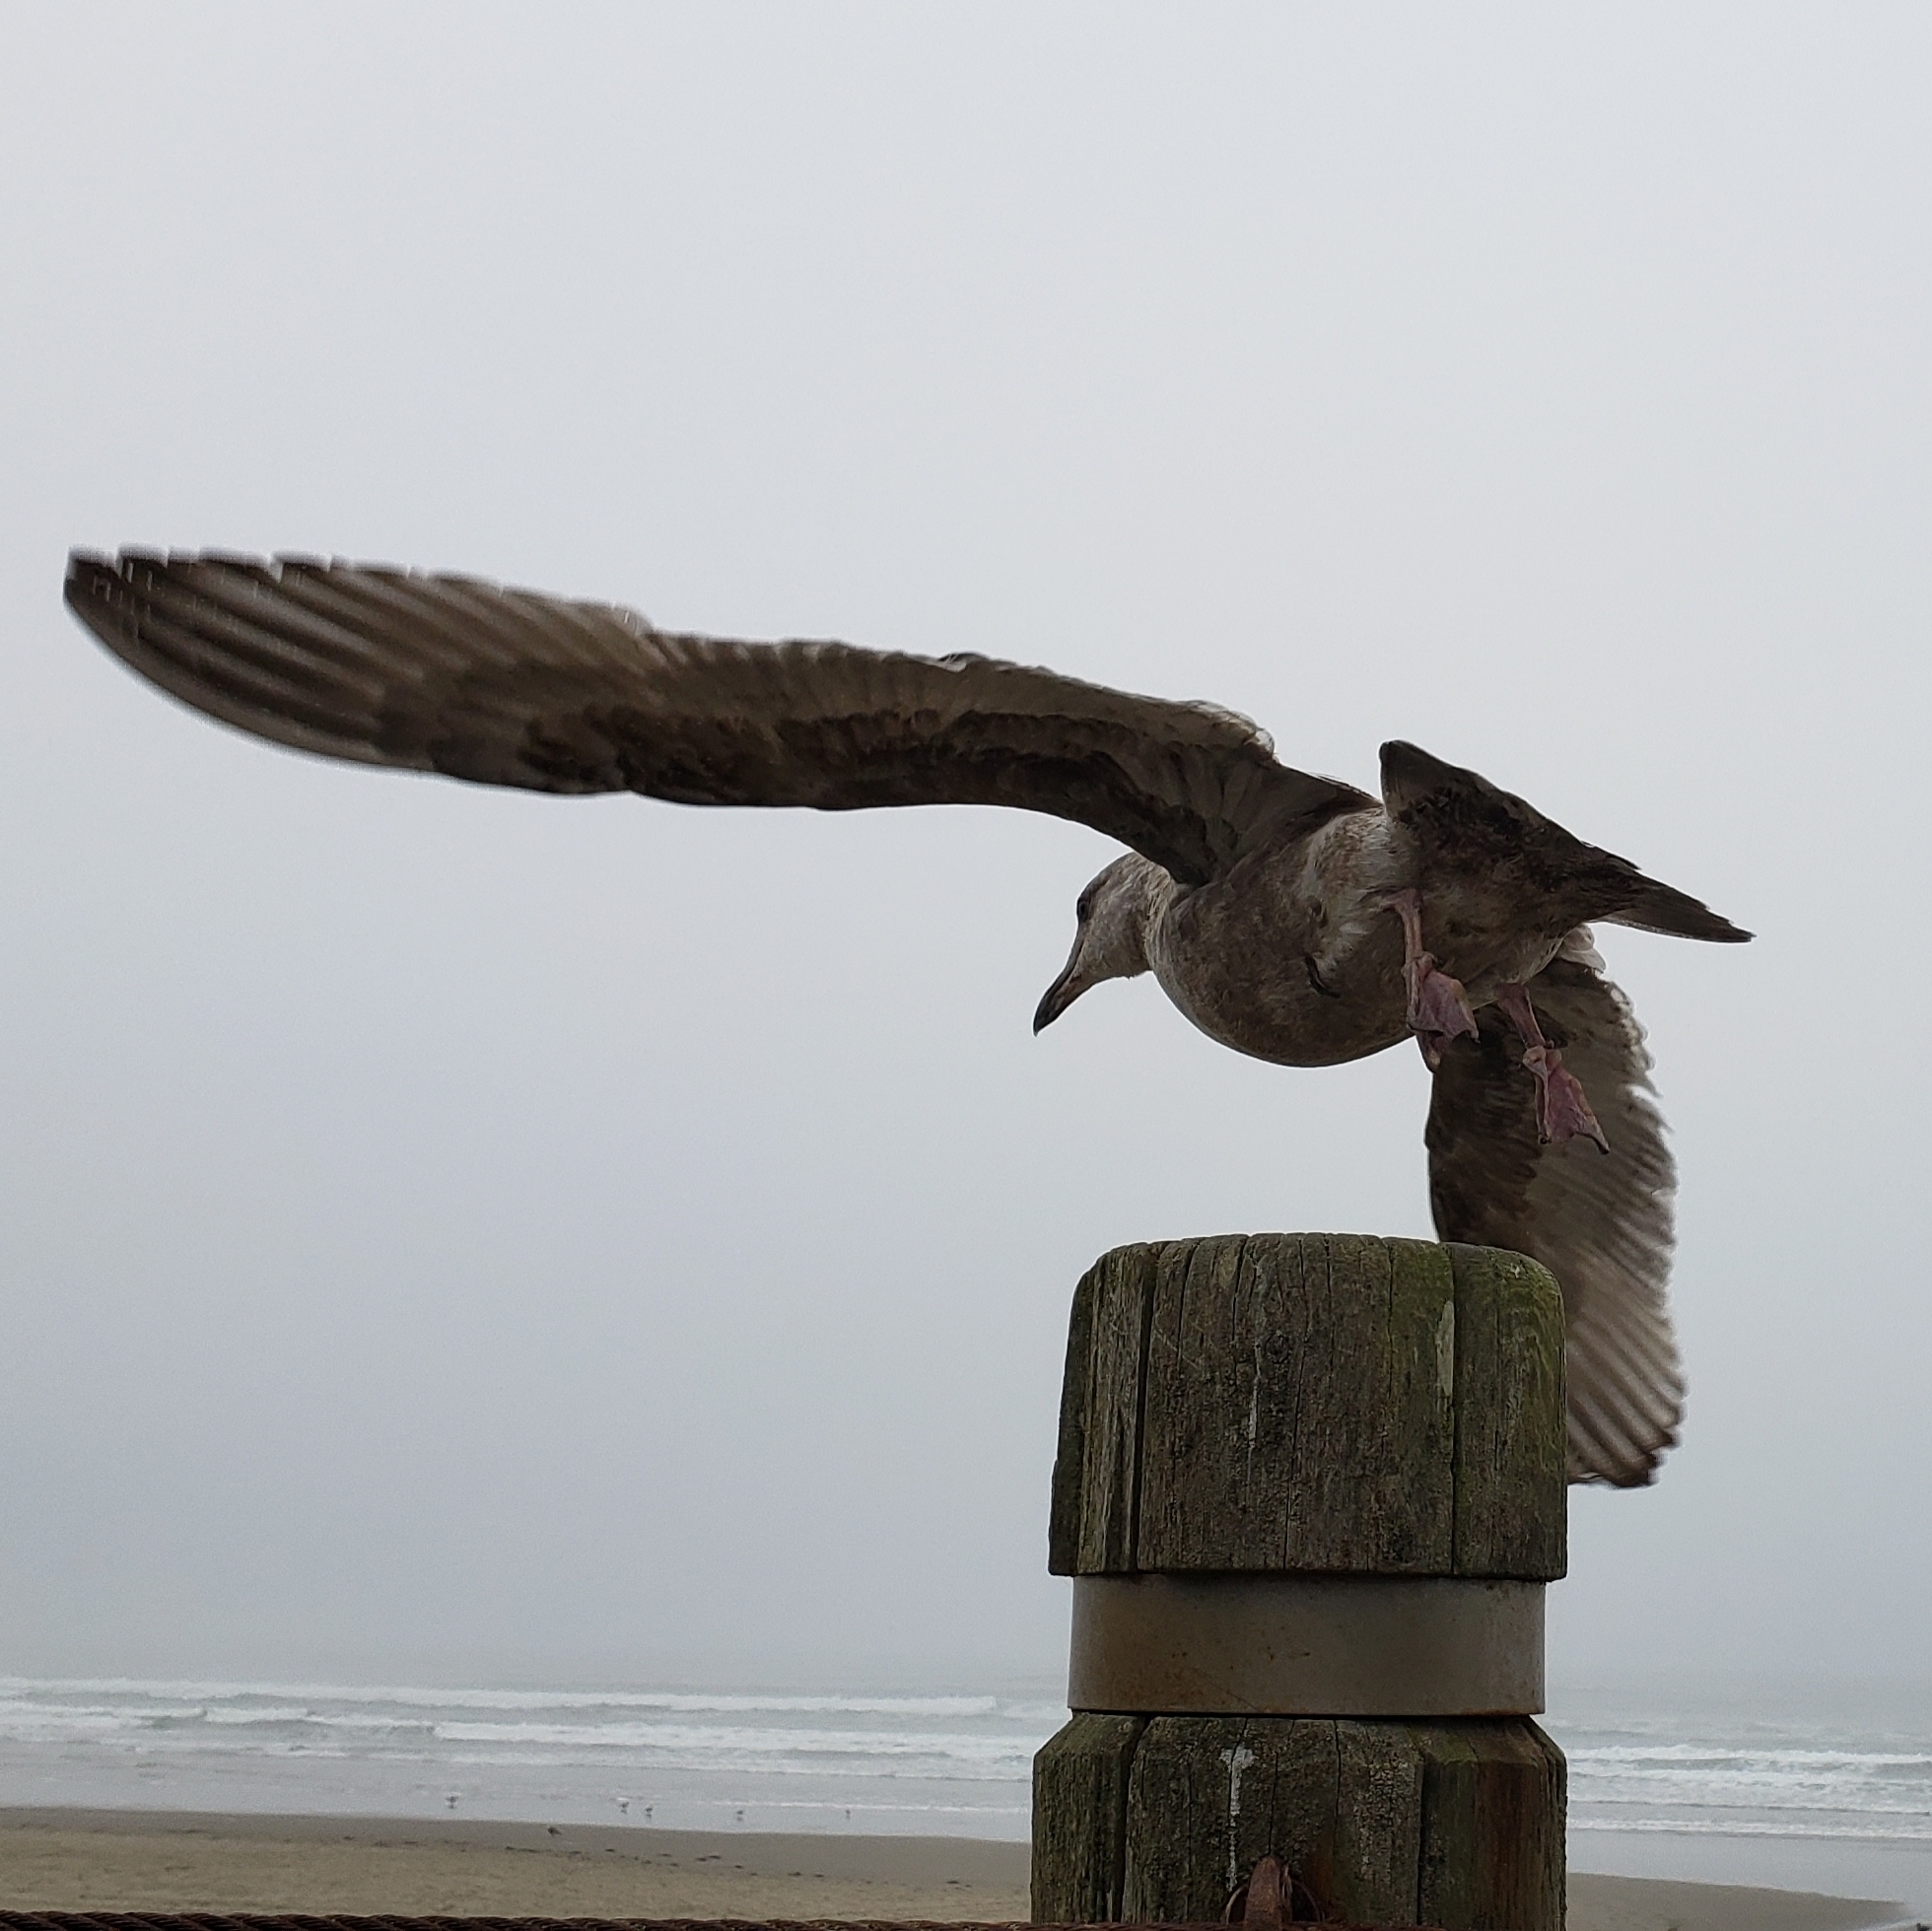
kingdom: Animalia
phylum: Chordata
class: Aves
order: Charadriiformes
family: Laridae
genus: Larus
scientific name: Larus occidentalis
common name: Western gull
